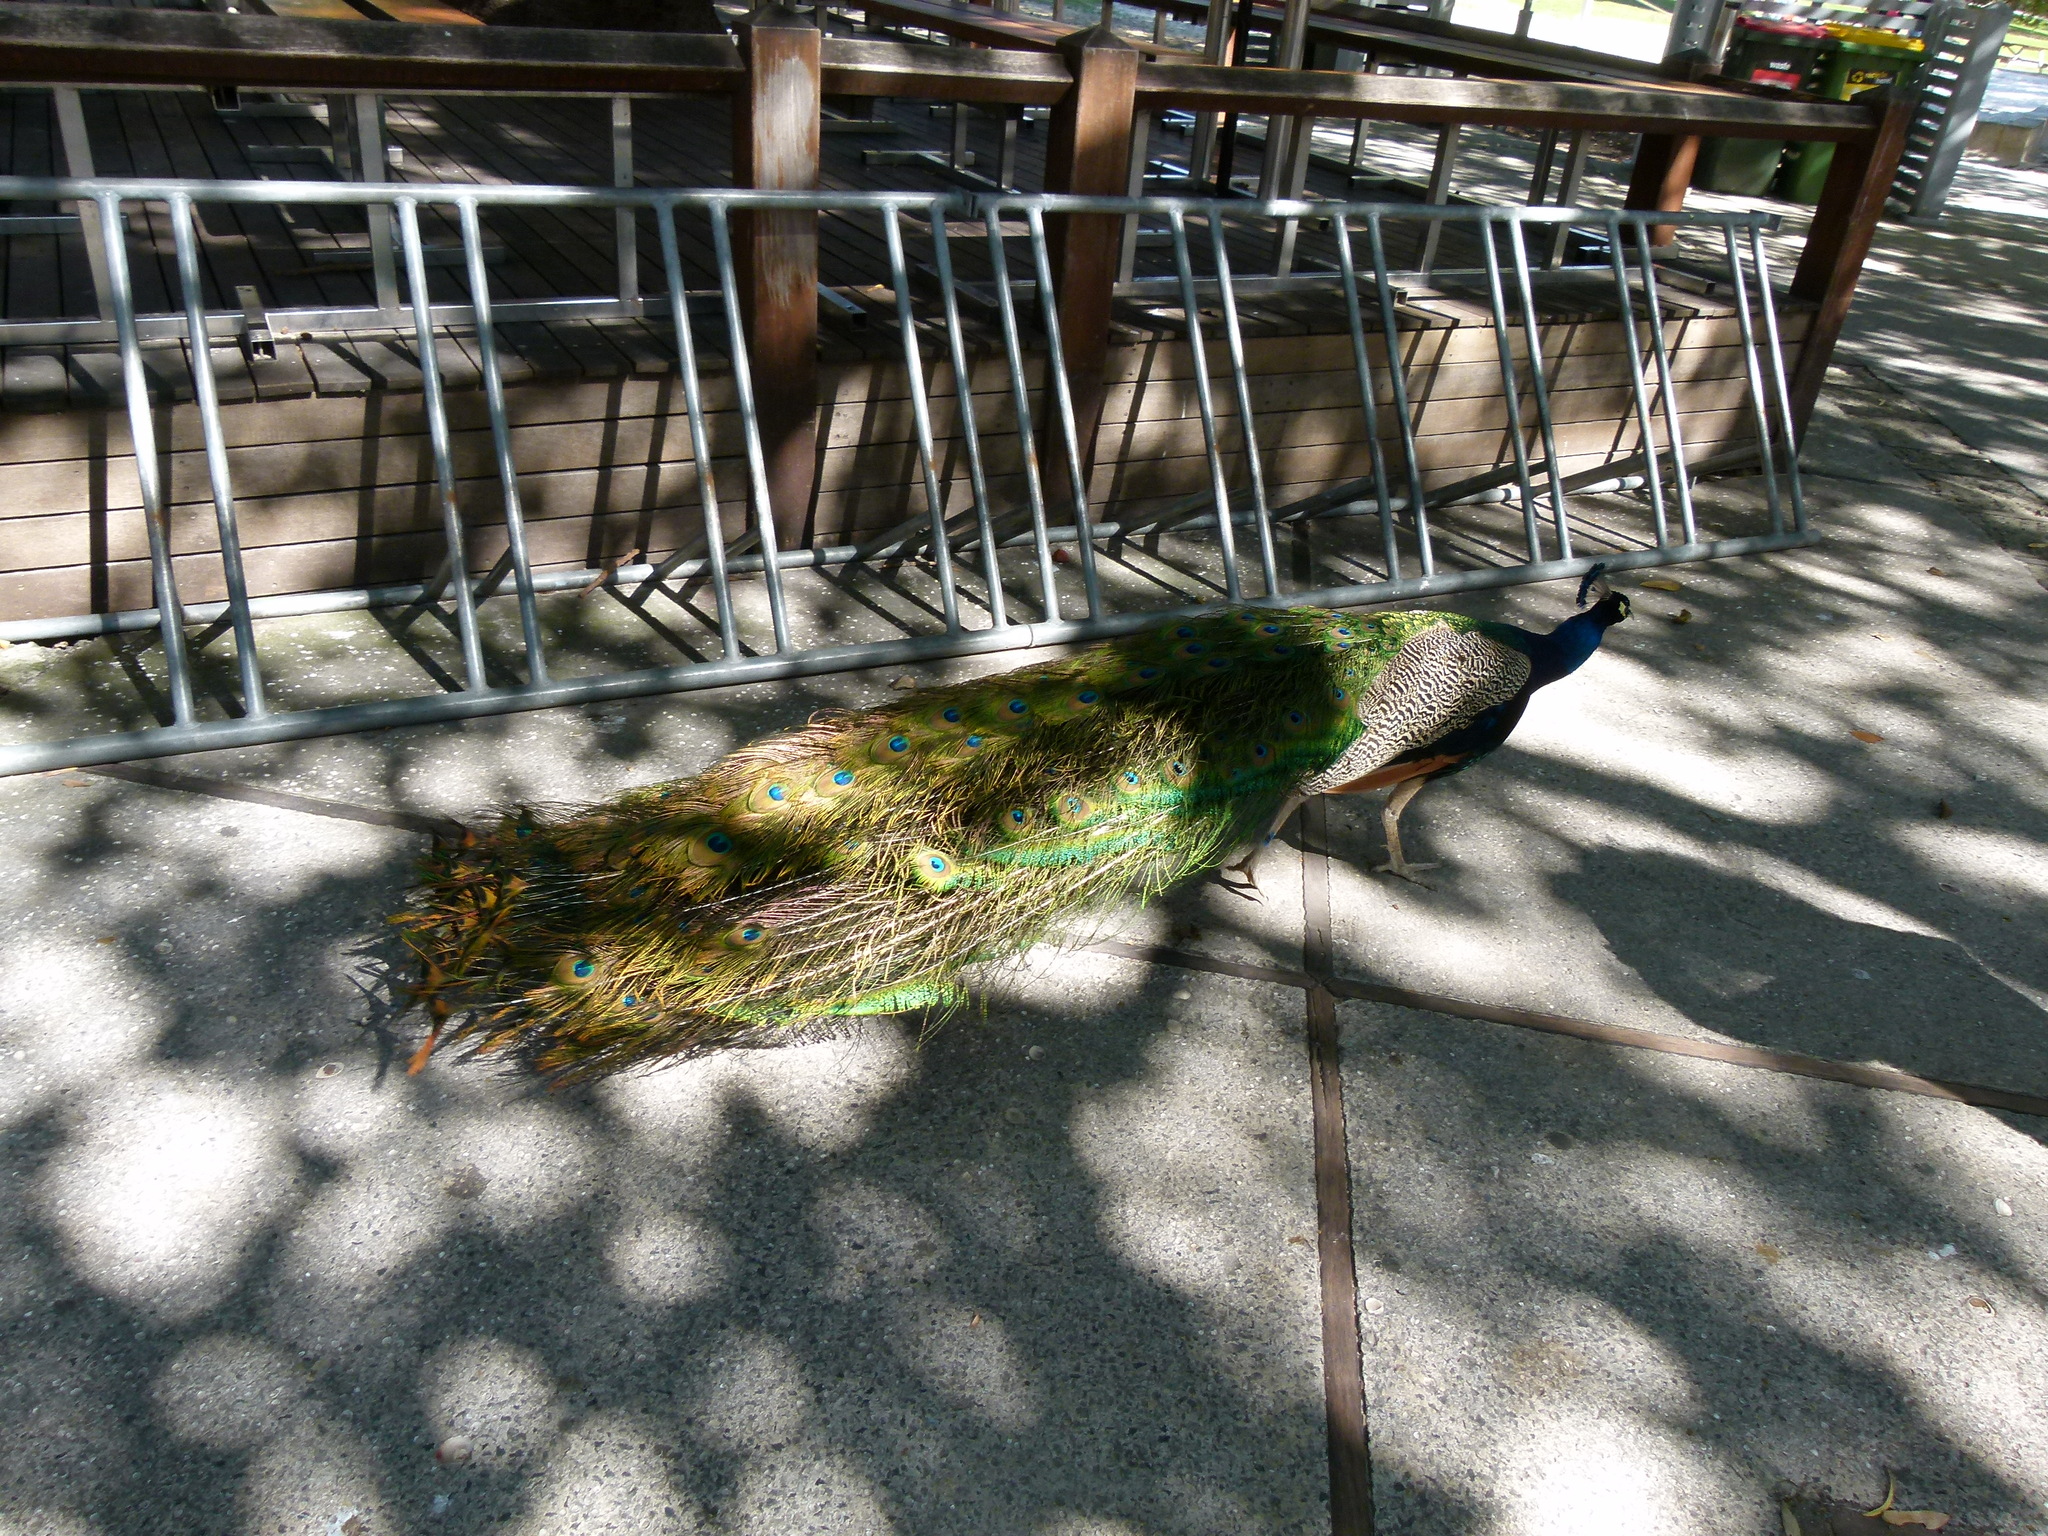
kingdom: Animalia
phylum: Chordata
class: Aves
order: Galliformes
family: Phasianidae
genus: Pavo
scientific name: Pavo cristatus
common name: Indian peafowl
